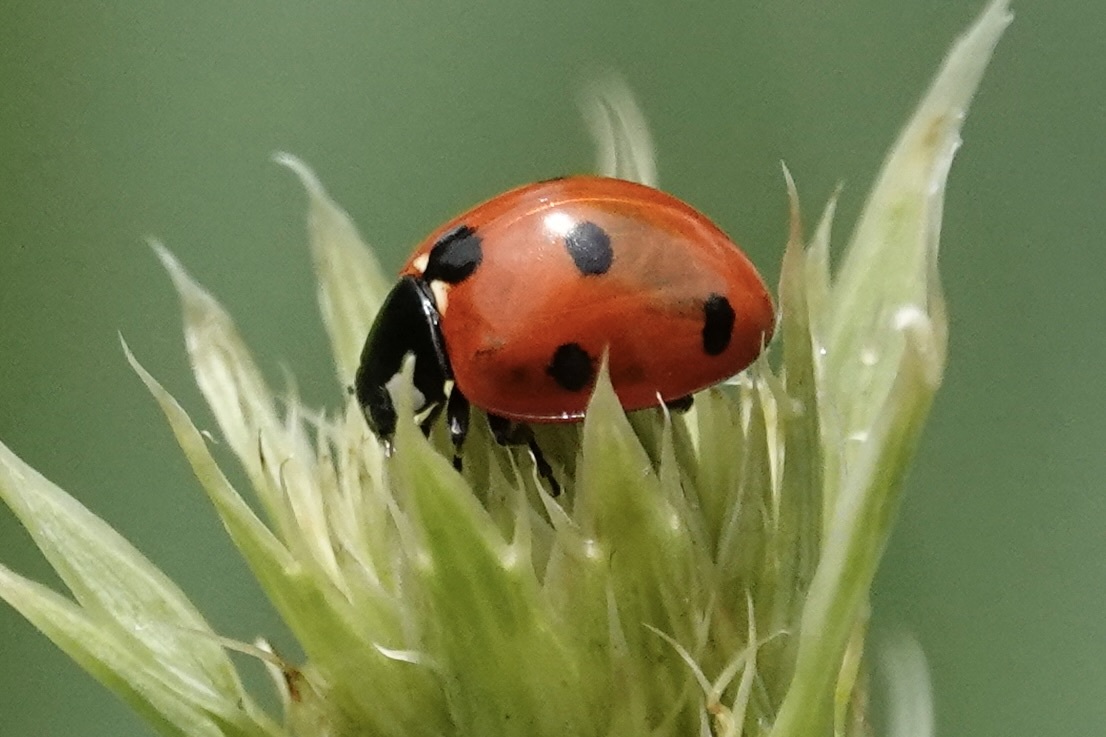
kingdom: Animalia
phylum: Arthropoda
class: Insecta
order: Coleoptera
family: Coccinellidae
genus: Coccinella
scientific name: Coccinella septempunctata
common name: Sevenspotted lady beetle
